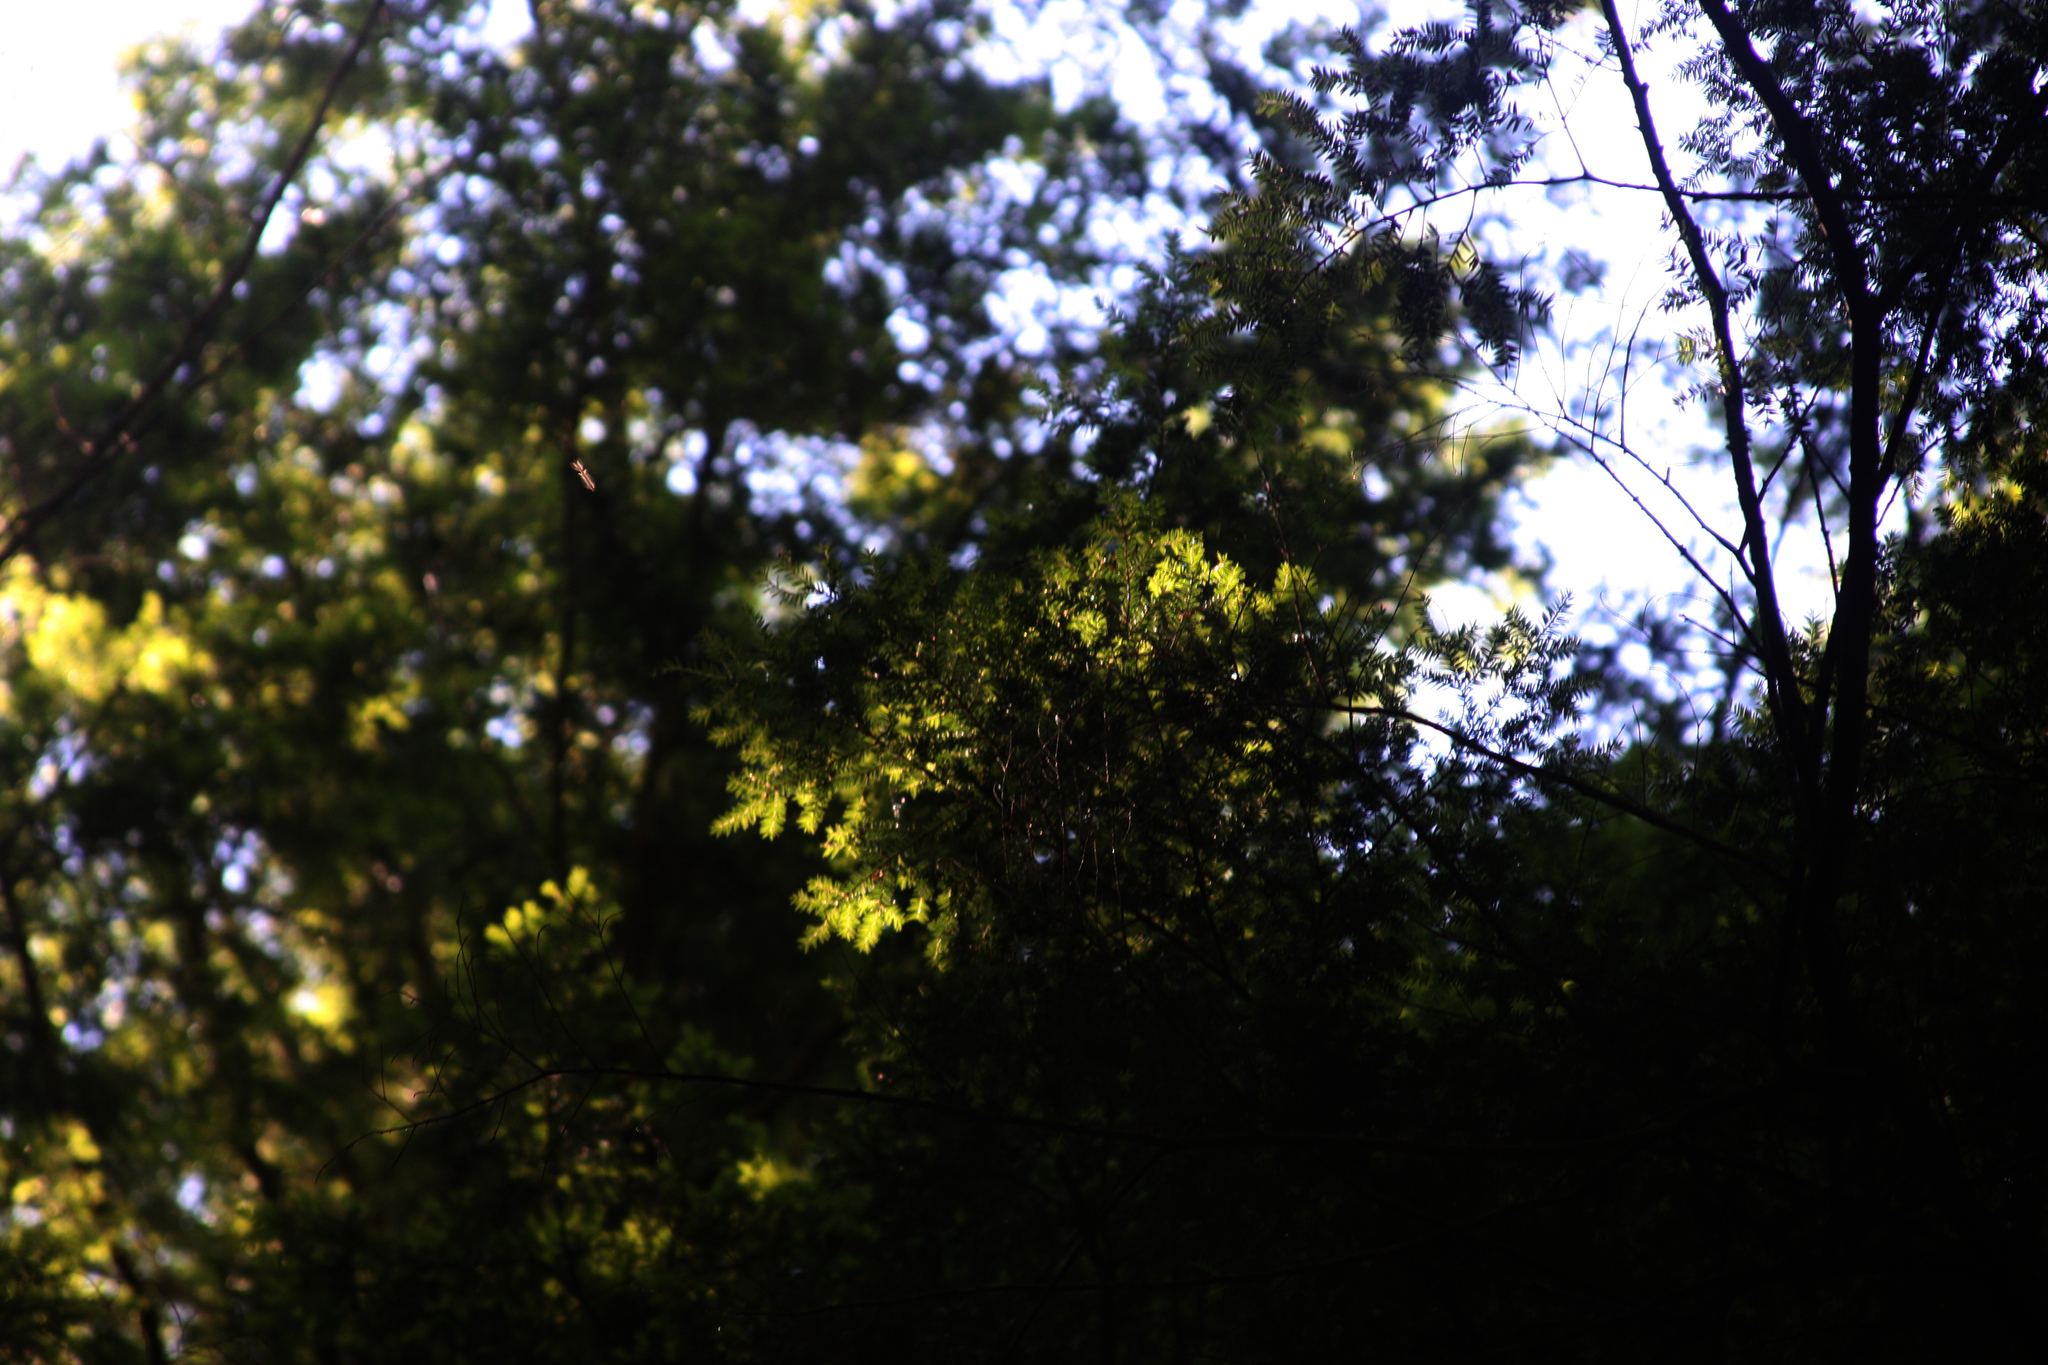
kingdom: Plantae
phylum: Tracheophyta
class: Pinopsida
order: Pinales
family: Pinaceae
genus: Tsuga
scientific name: Tsuga canadensis
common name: Eastern hemlock
